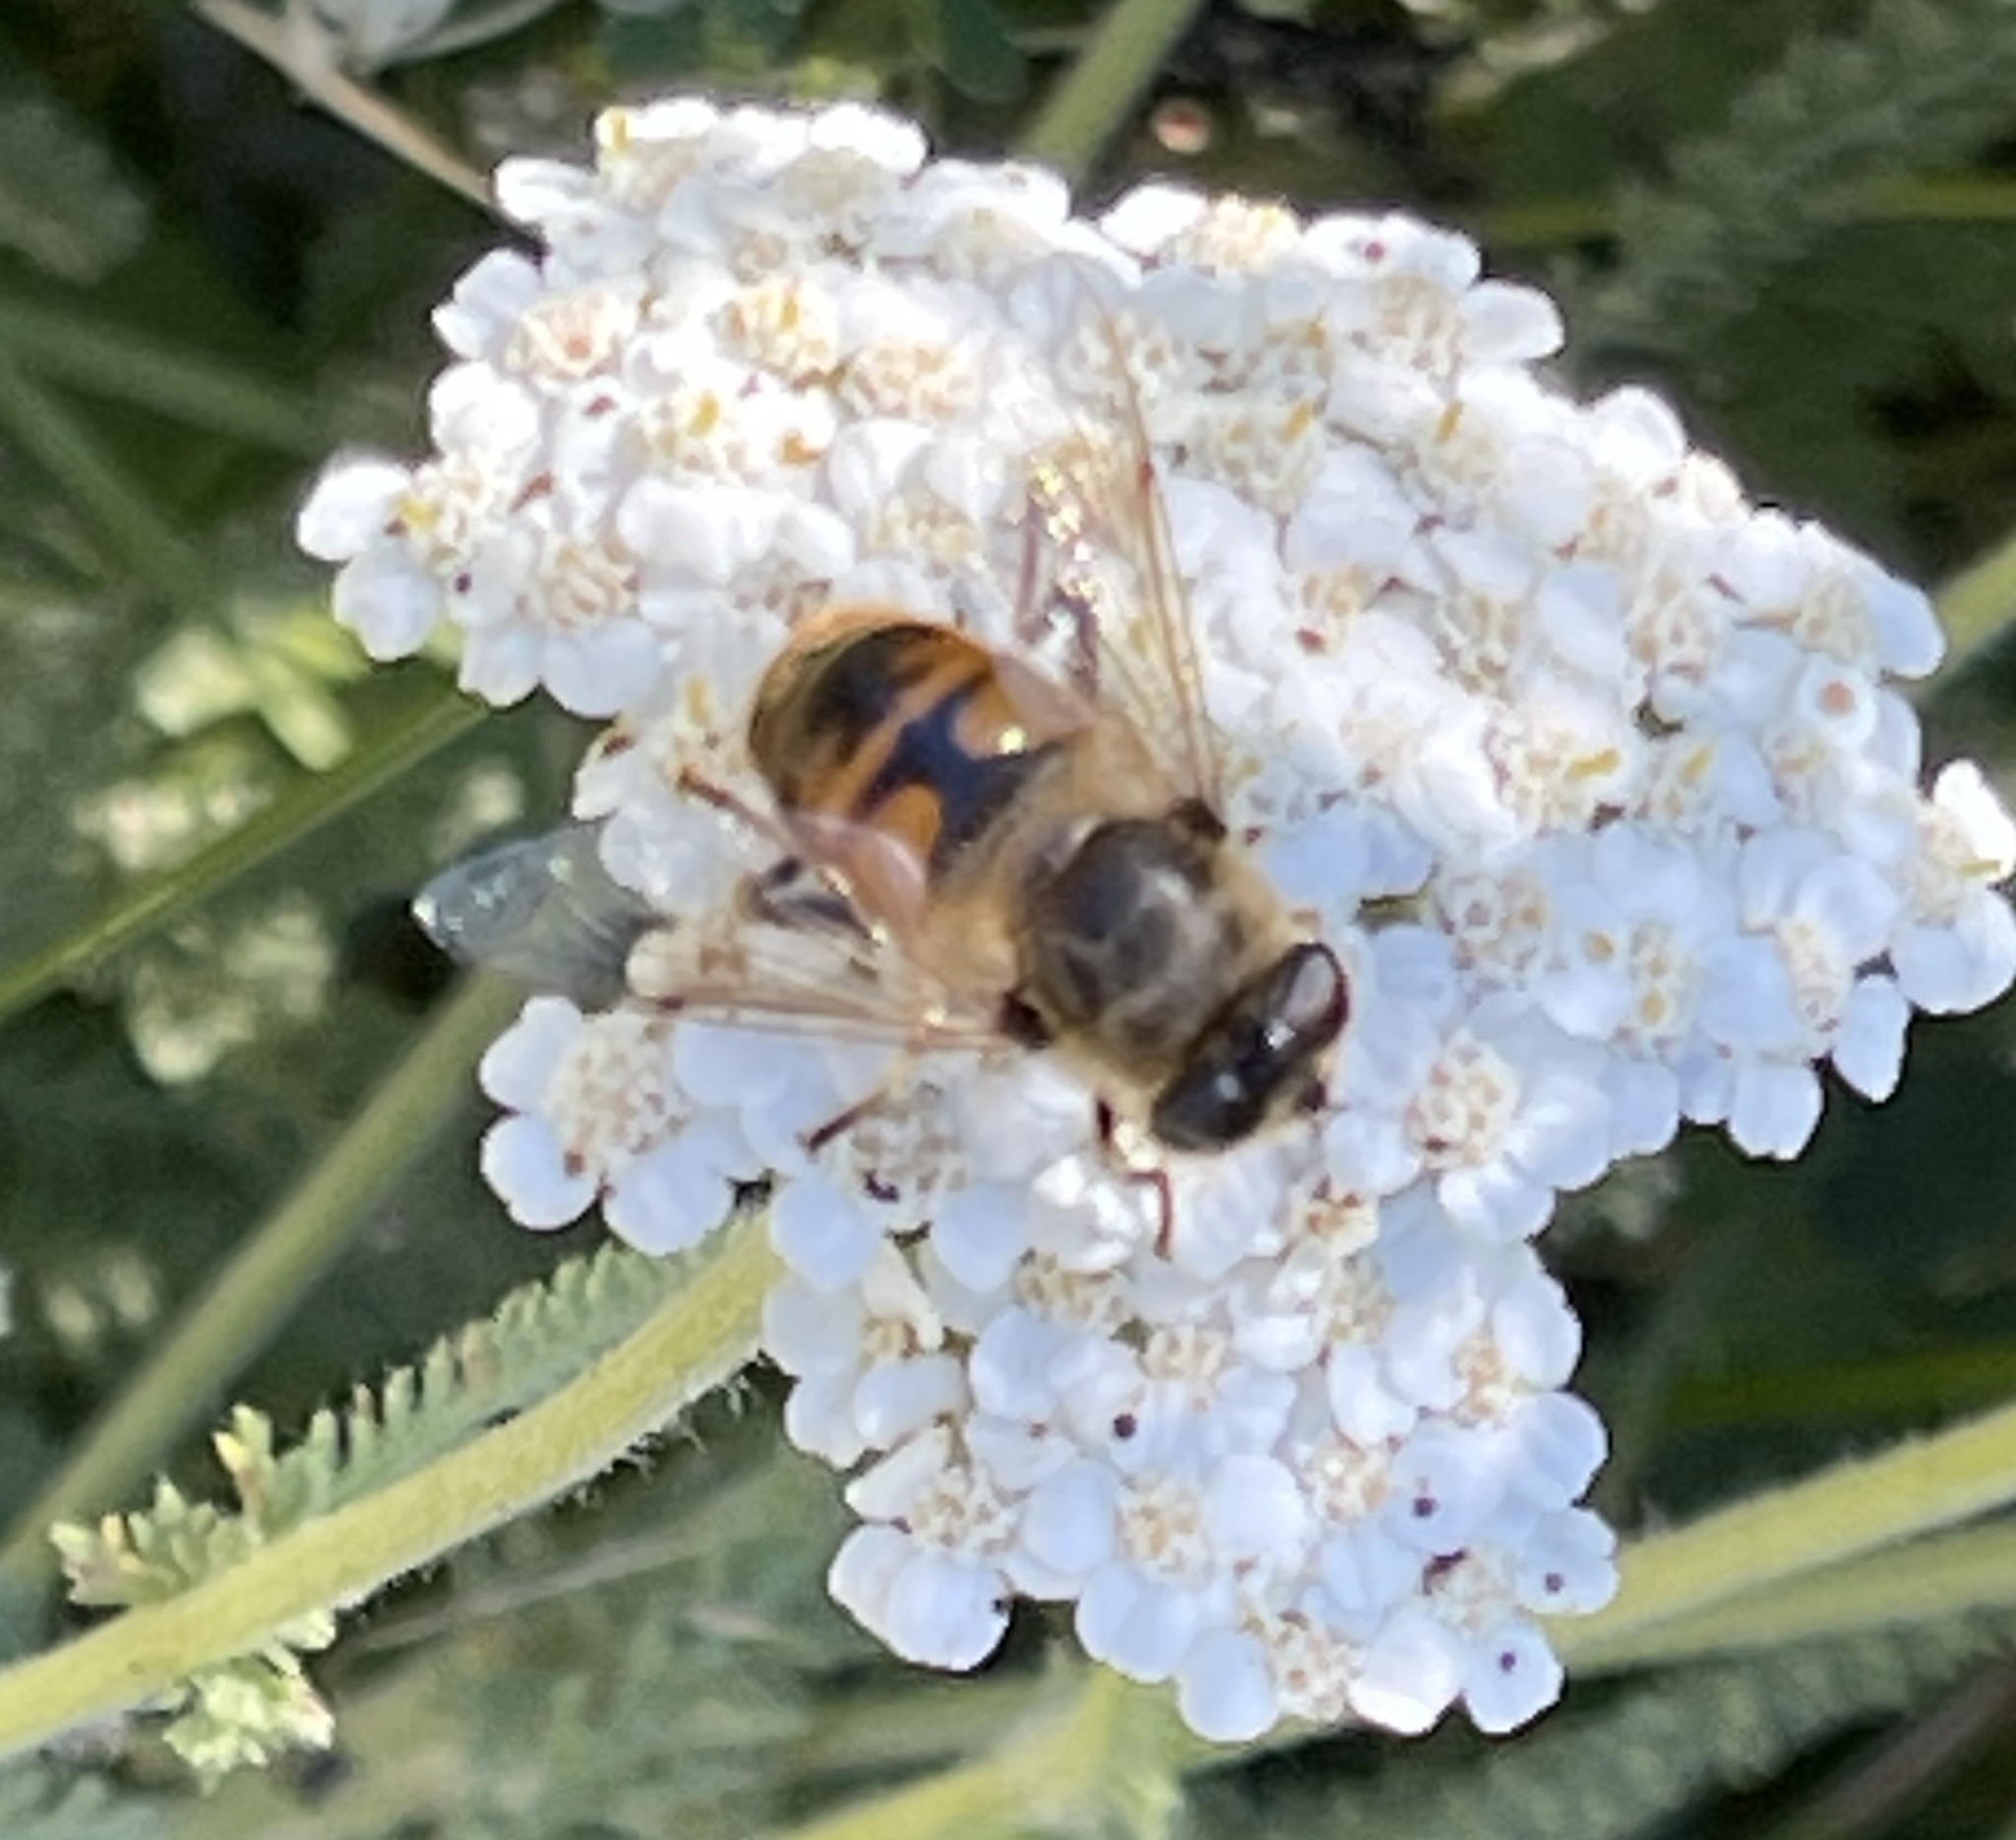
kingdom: Animalia
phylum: Arthropoda
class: Insecta
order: Diptera
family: Syrphidae
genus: Eristalis
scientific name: Eristalis tenax
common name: Drone fly
